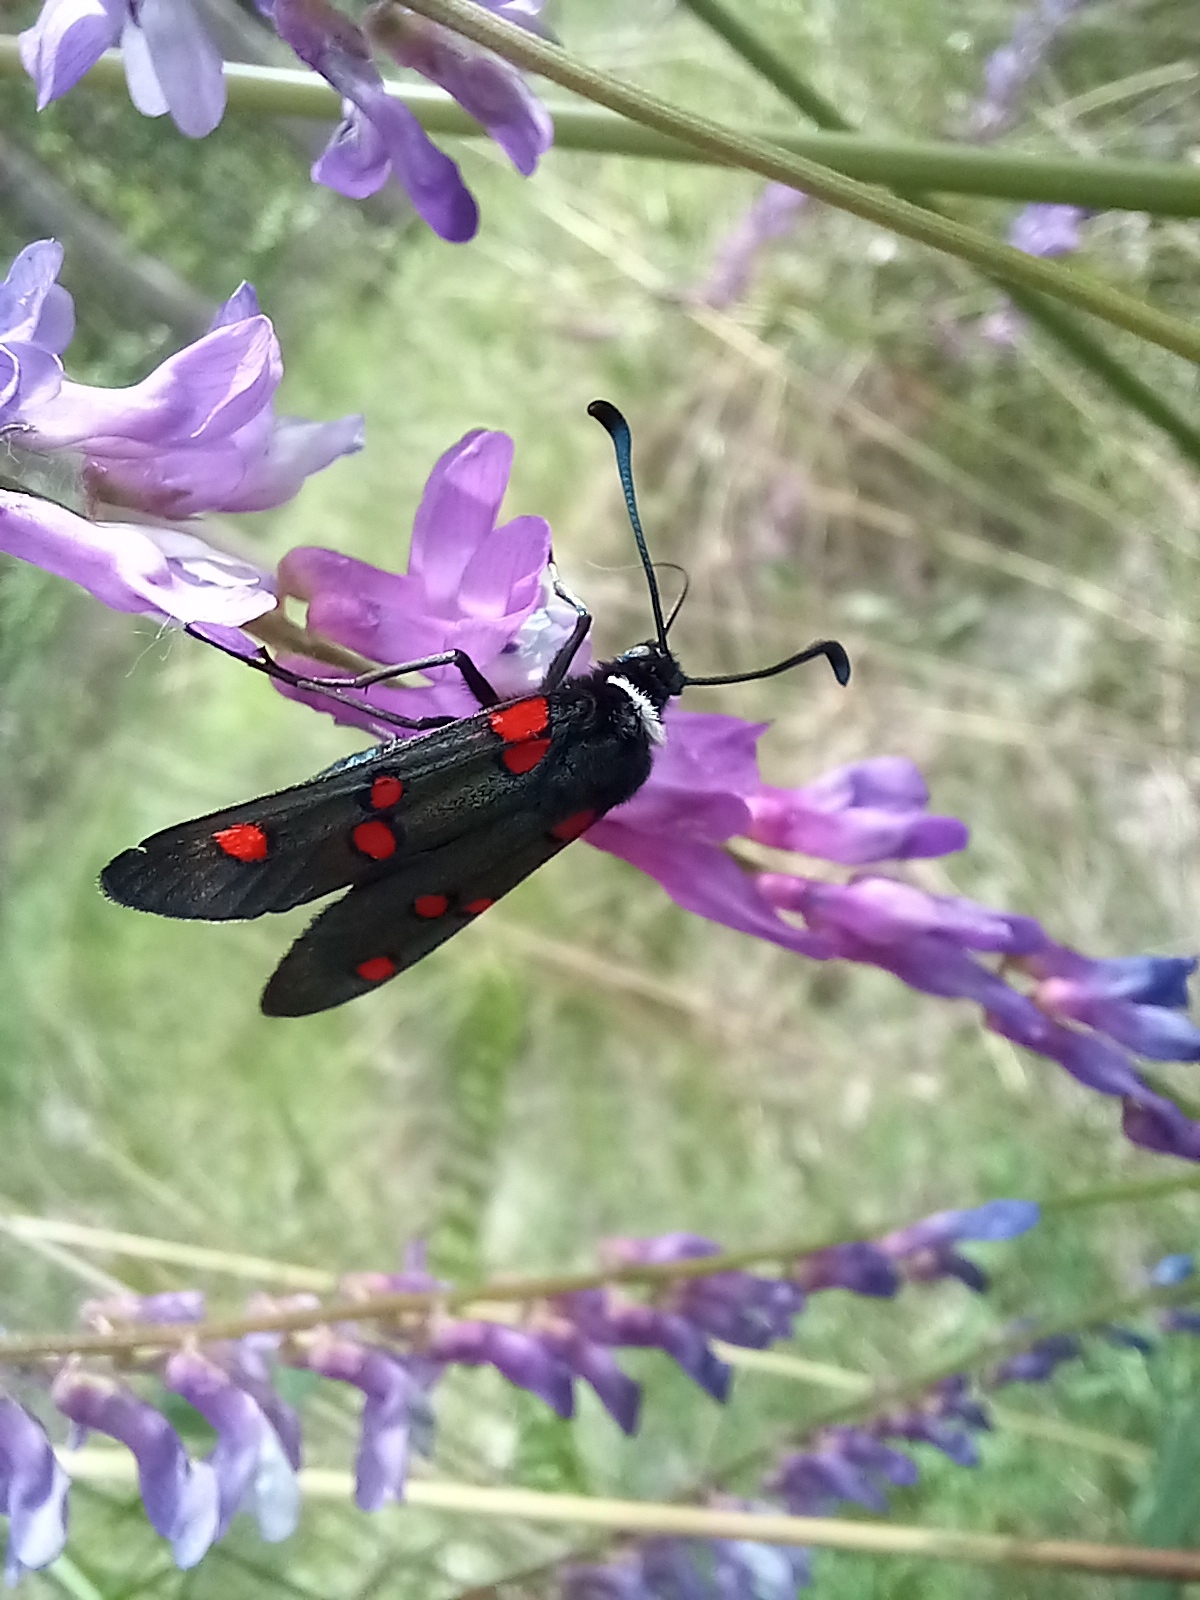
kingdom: Animalia
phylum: Arthropoda
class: Insecta
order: Lepidoptera
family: Zygaenidae
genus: Zygaena
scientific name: Zygaena lavandulae
